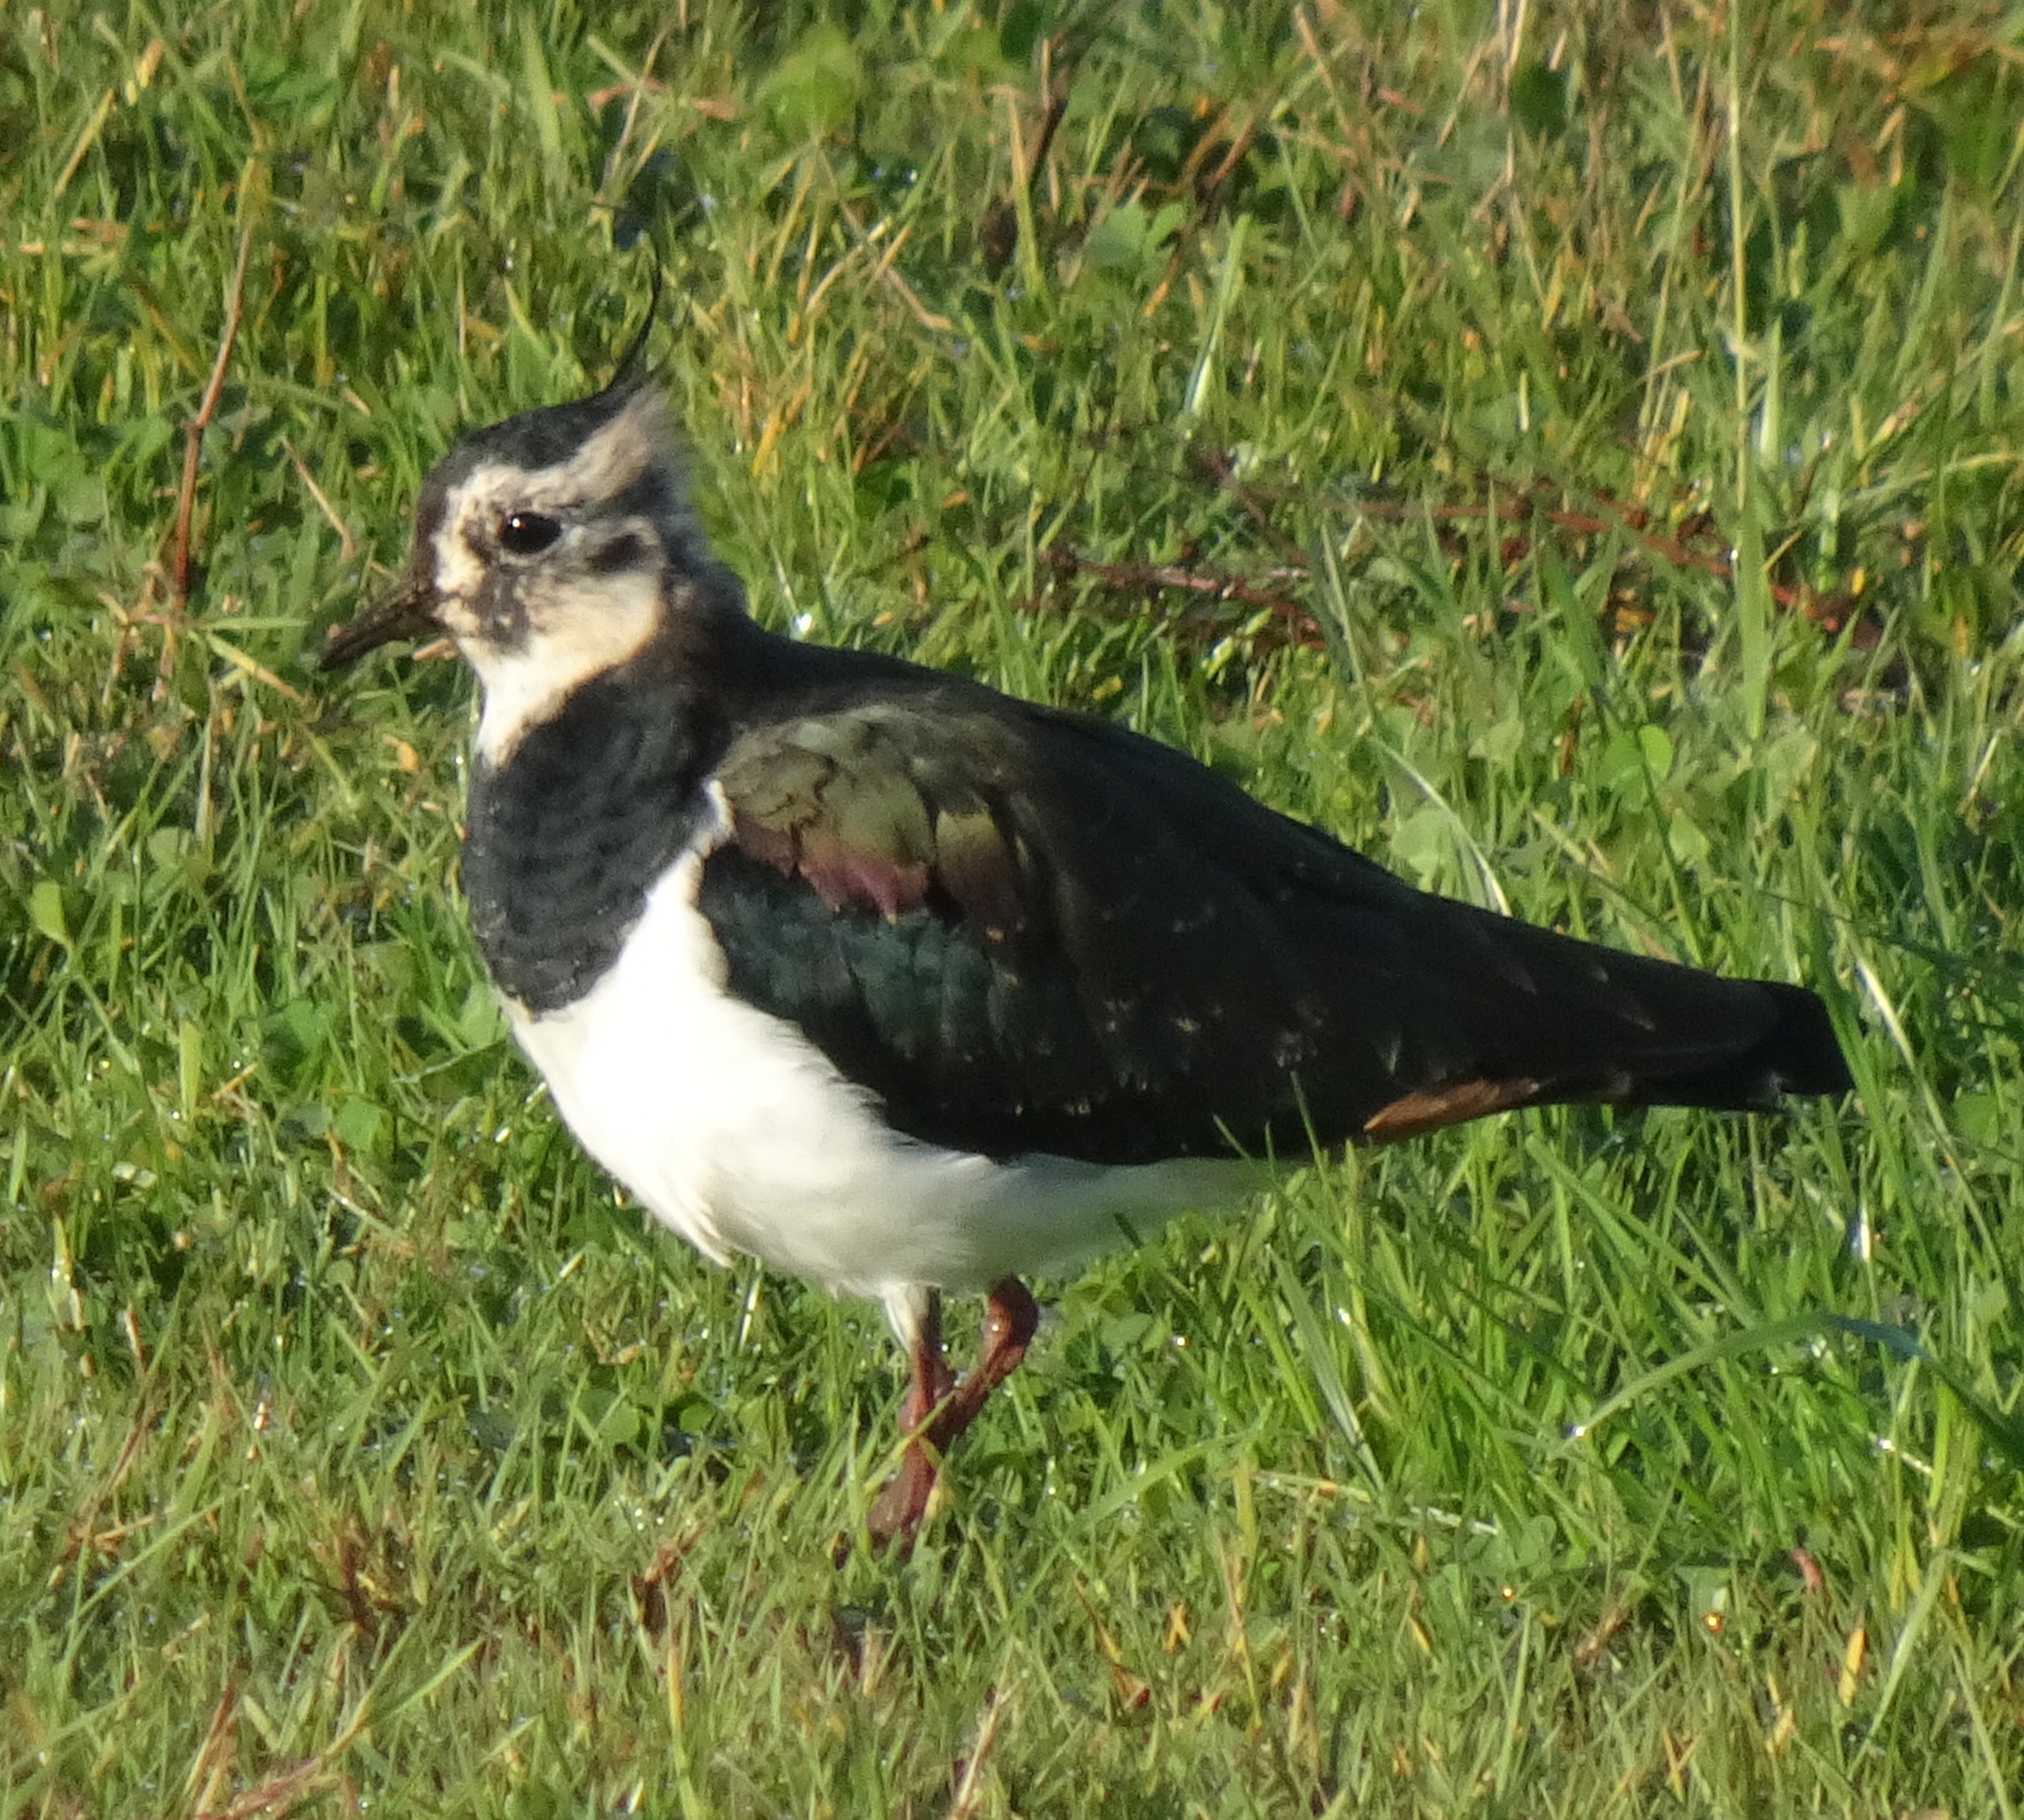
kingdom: Animalia
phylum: Chordata
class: Aves
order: Charadriiformes
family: Charadriidae
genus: Vanellus
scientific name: Vanellus vanellus
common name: Northern lapwing
